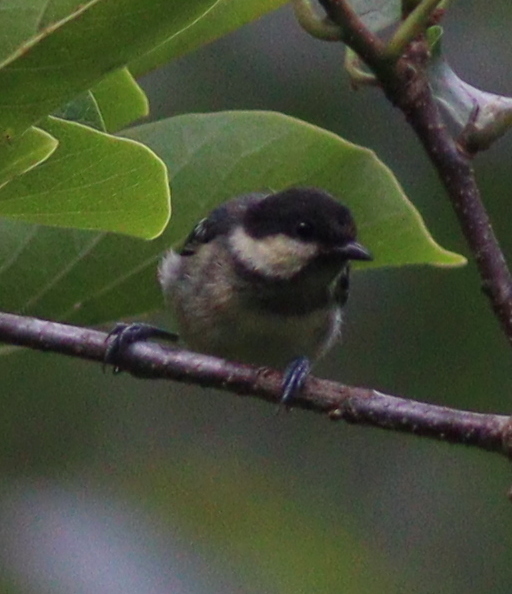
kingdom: Animalia
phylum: Chordata
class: Aves
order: Passeriformes
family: Paridae
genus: Periparus
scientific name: Periparus ater
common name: Coal tit
